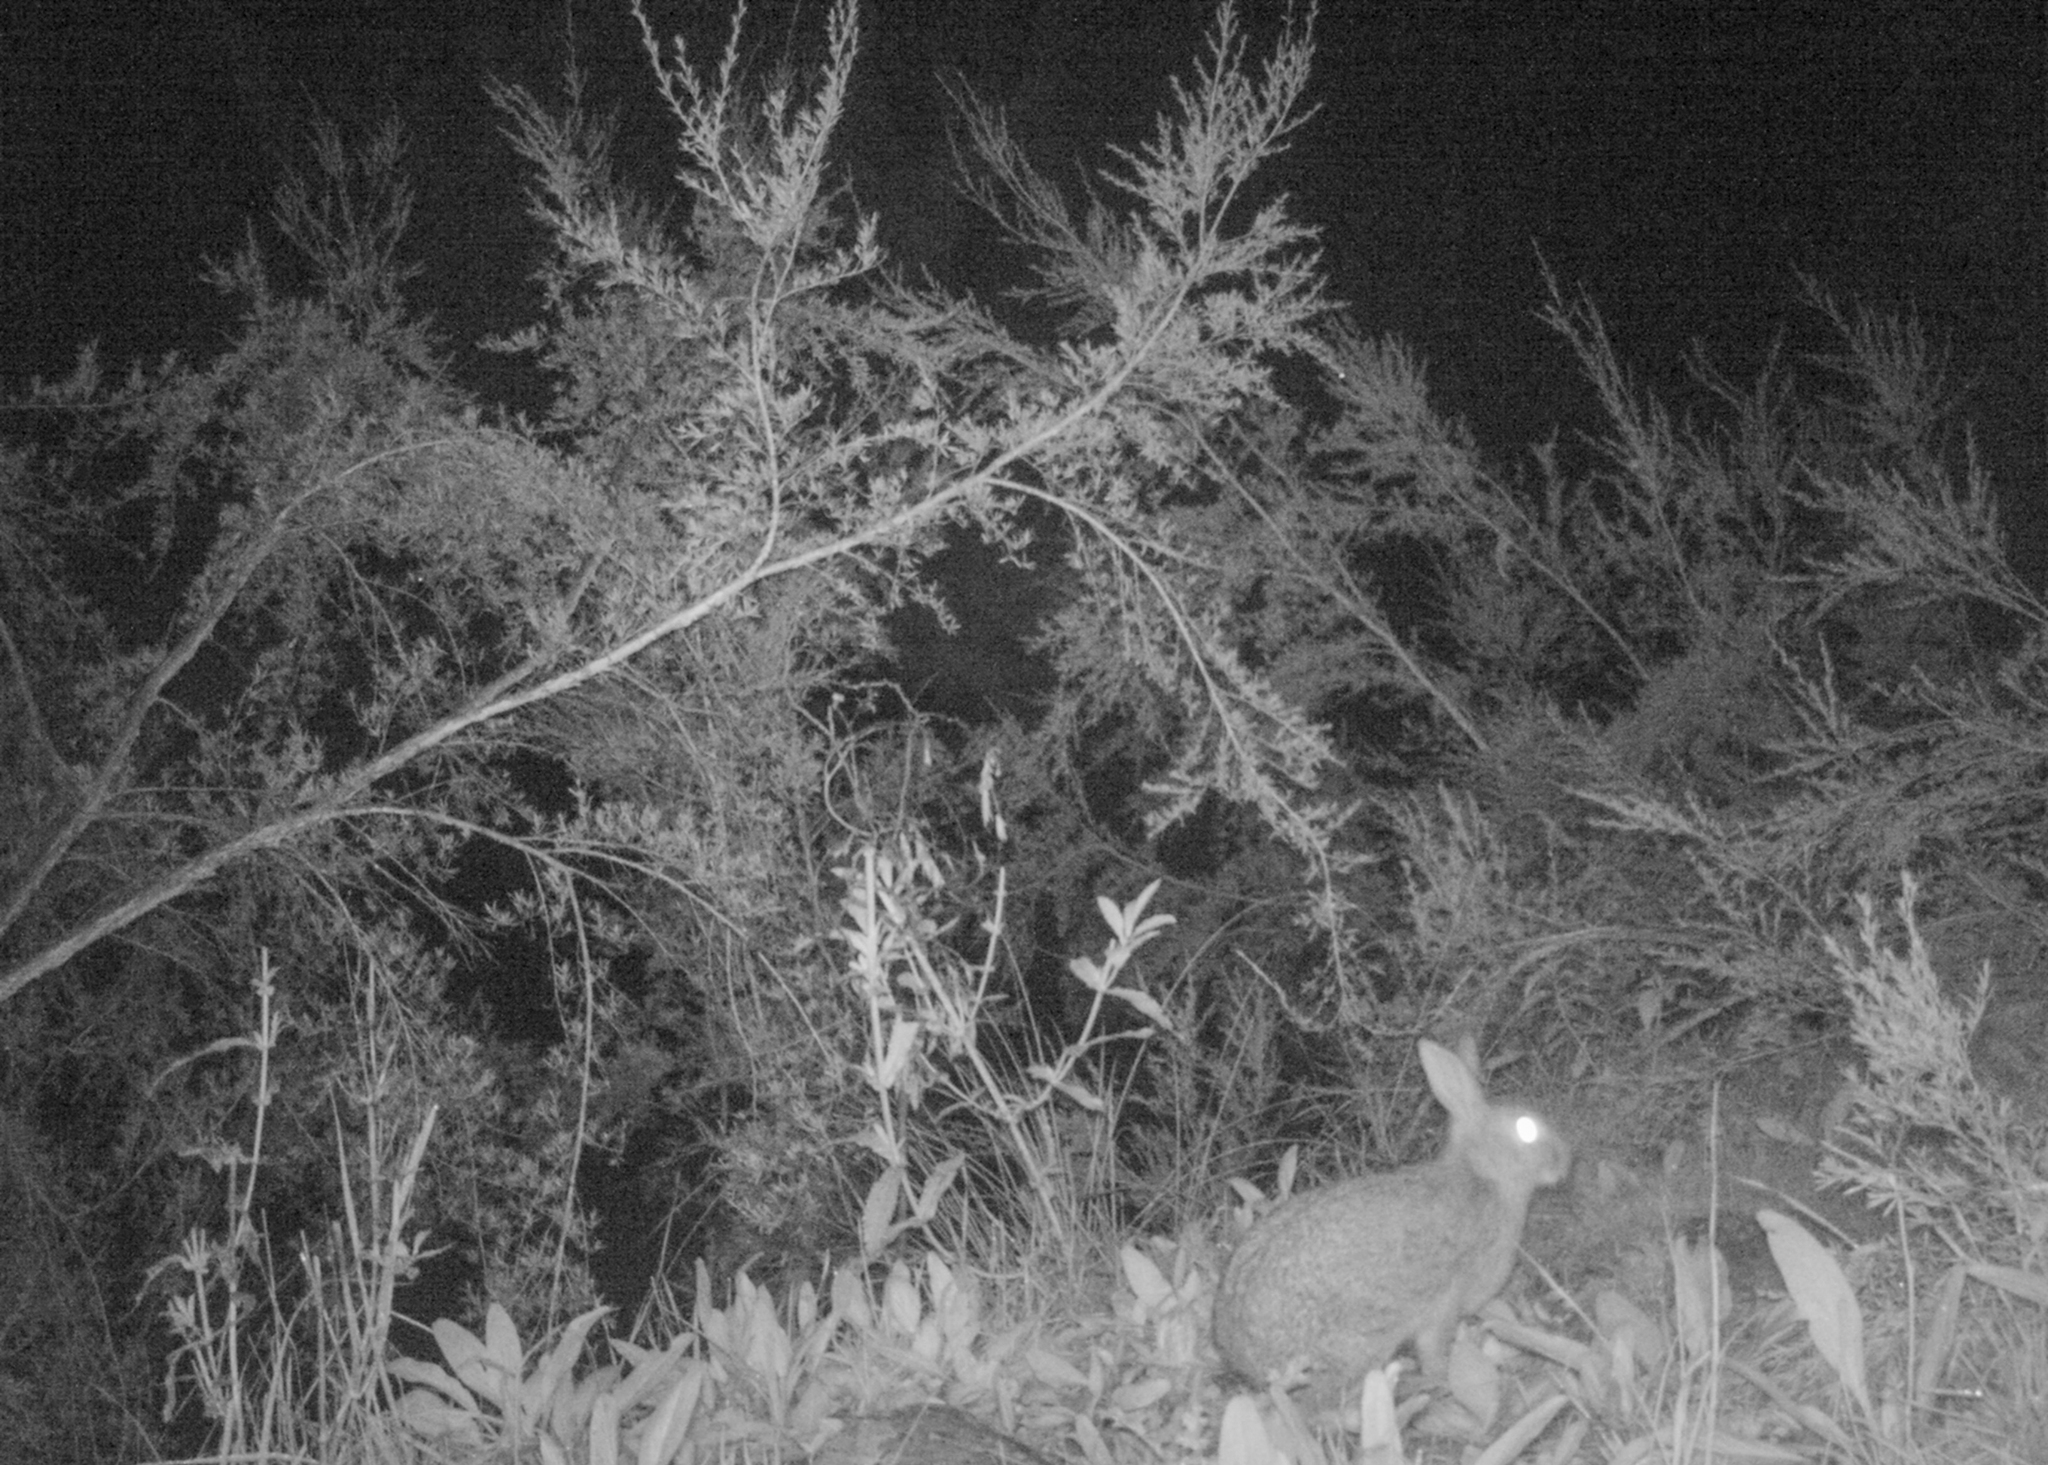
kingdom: Animalia
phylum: Chordata
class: Mammalia
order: Lagomorpha
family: Leporidae
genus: Oryctolagus
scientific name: Oryctolagus cuniculus
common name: European rabbit
